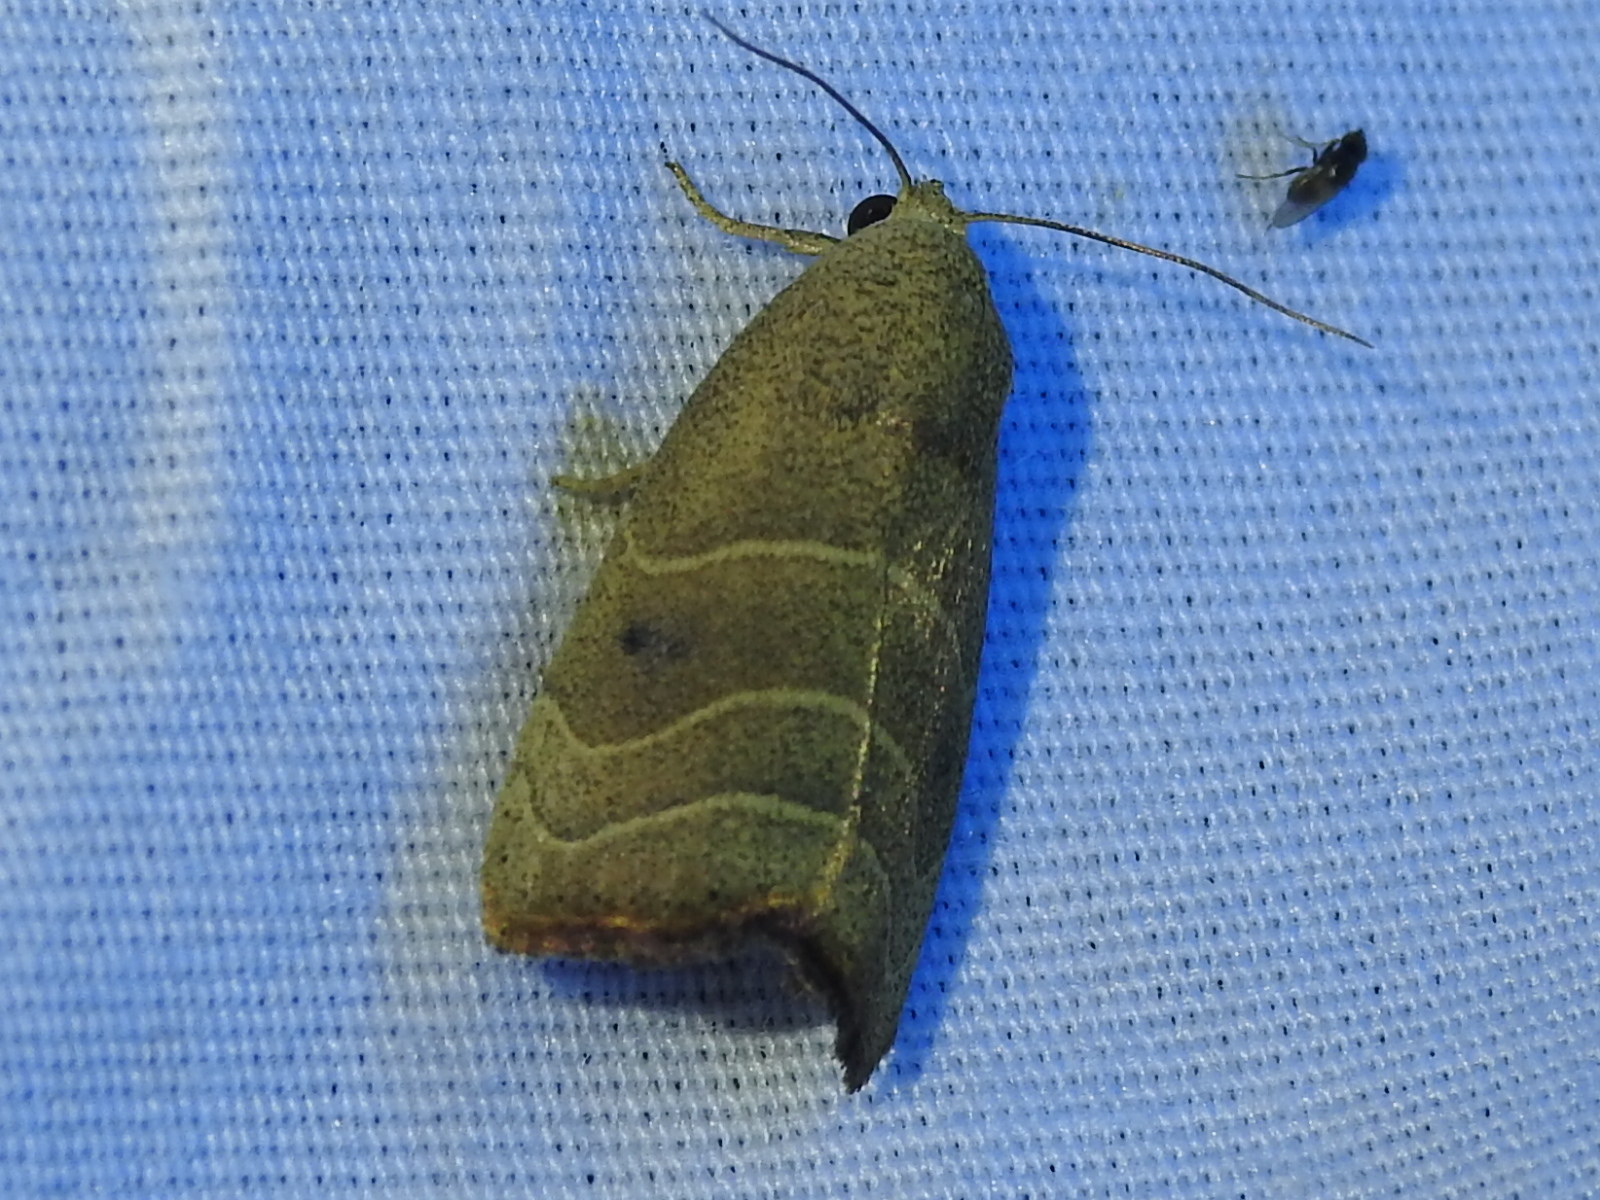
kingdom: Animalia
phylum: Arthropoda
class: Insecta
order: Lepidoptera
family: Noctuidae
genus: Bagisara
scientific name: Bagisara repanda
